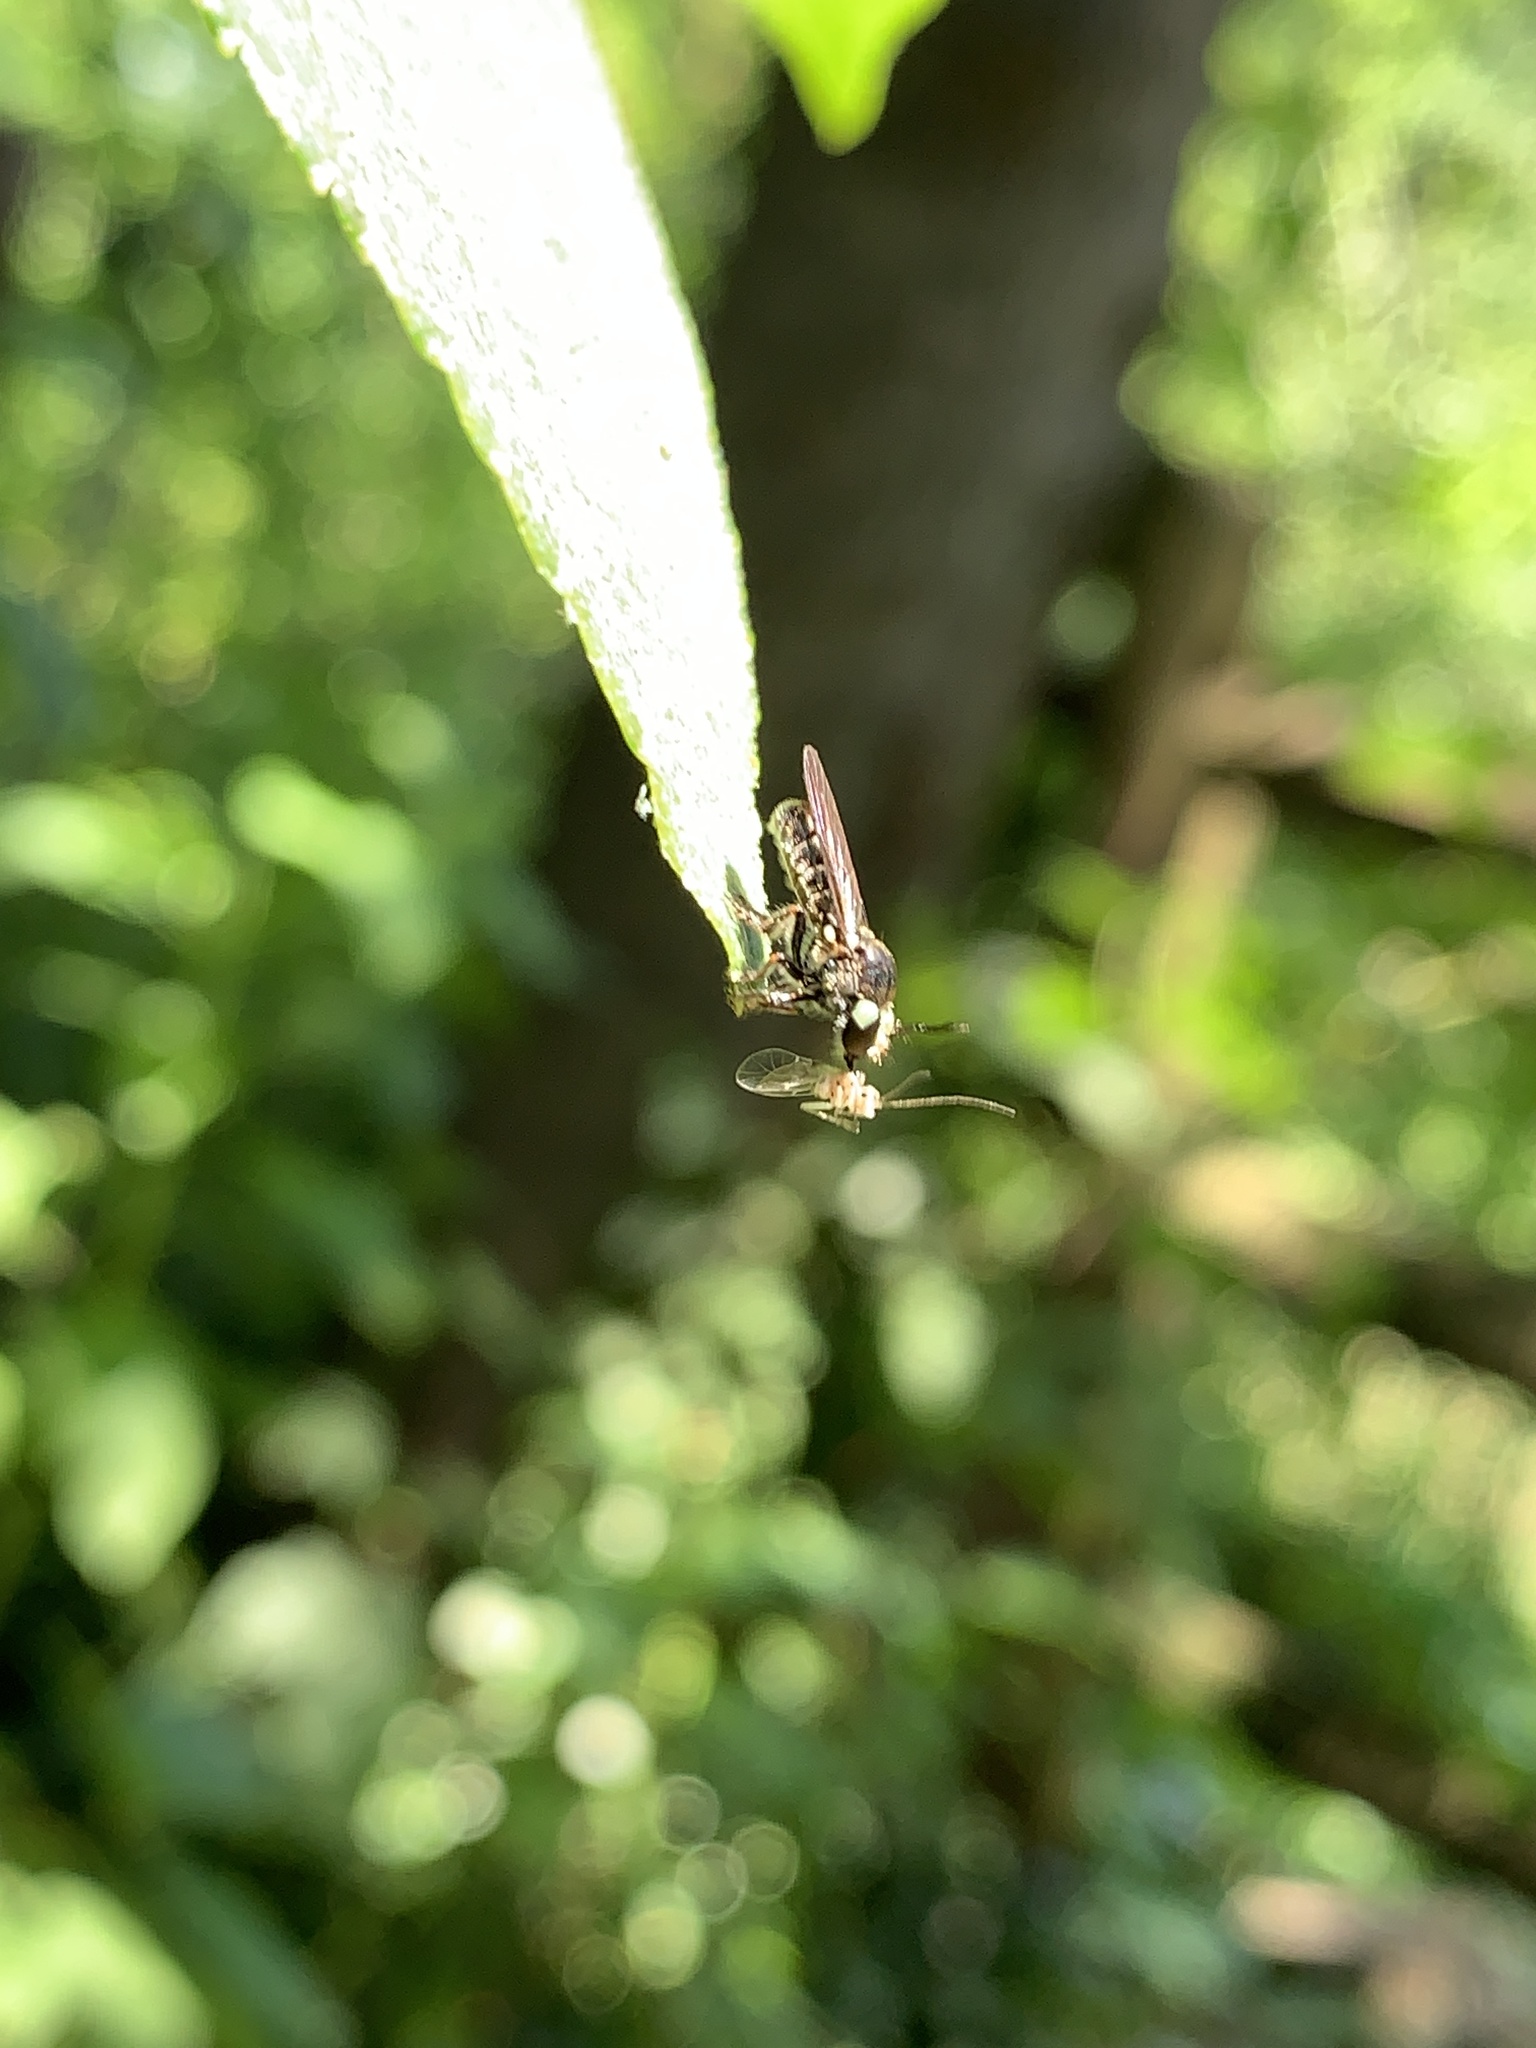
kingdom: Animalia
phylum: Arthropoda
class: Insecta
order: Diptera
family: Asilidae
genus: Cerotainia
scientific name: Cerotainia
